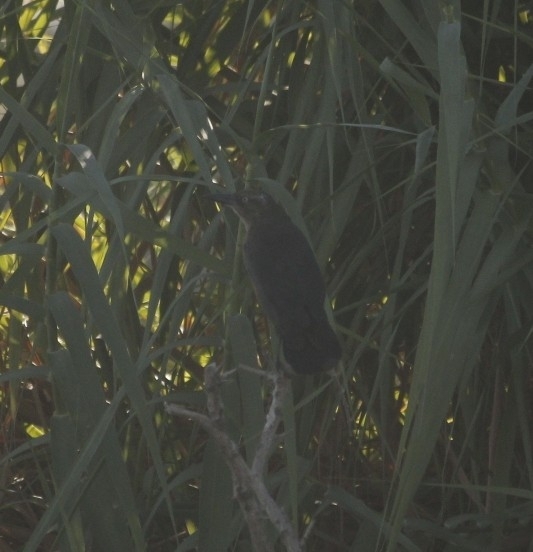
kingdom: Animalia
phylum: Chordata
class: Aves
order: Passeriformes
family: Icteridae
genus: Quiscalus
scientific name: Quiscalus mexicanus
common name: Great-tailed grackle
